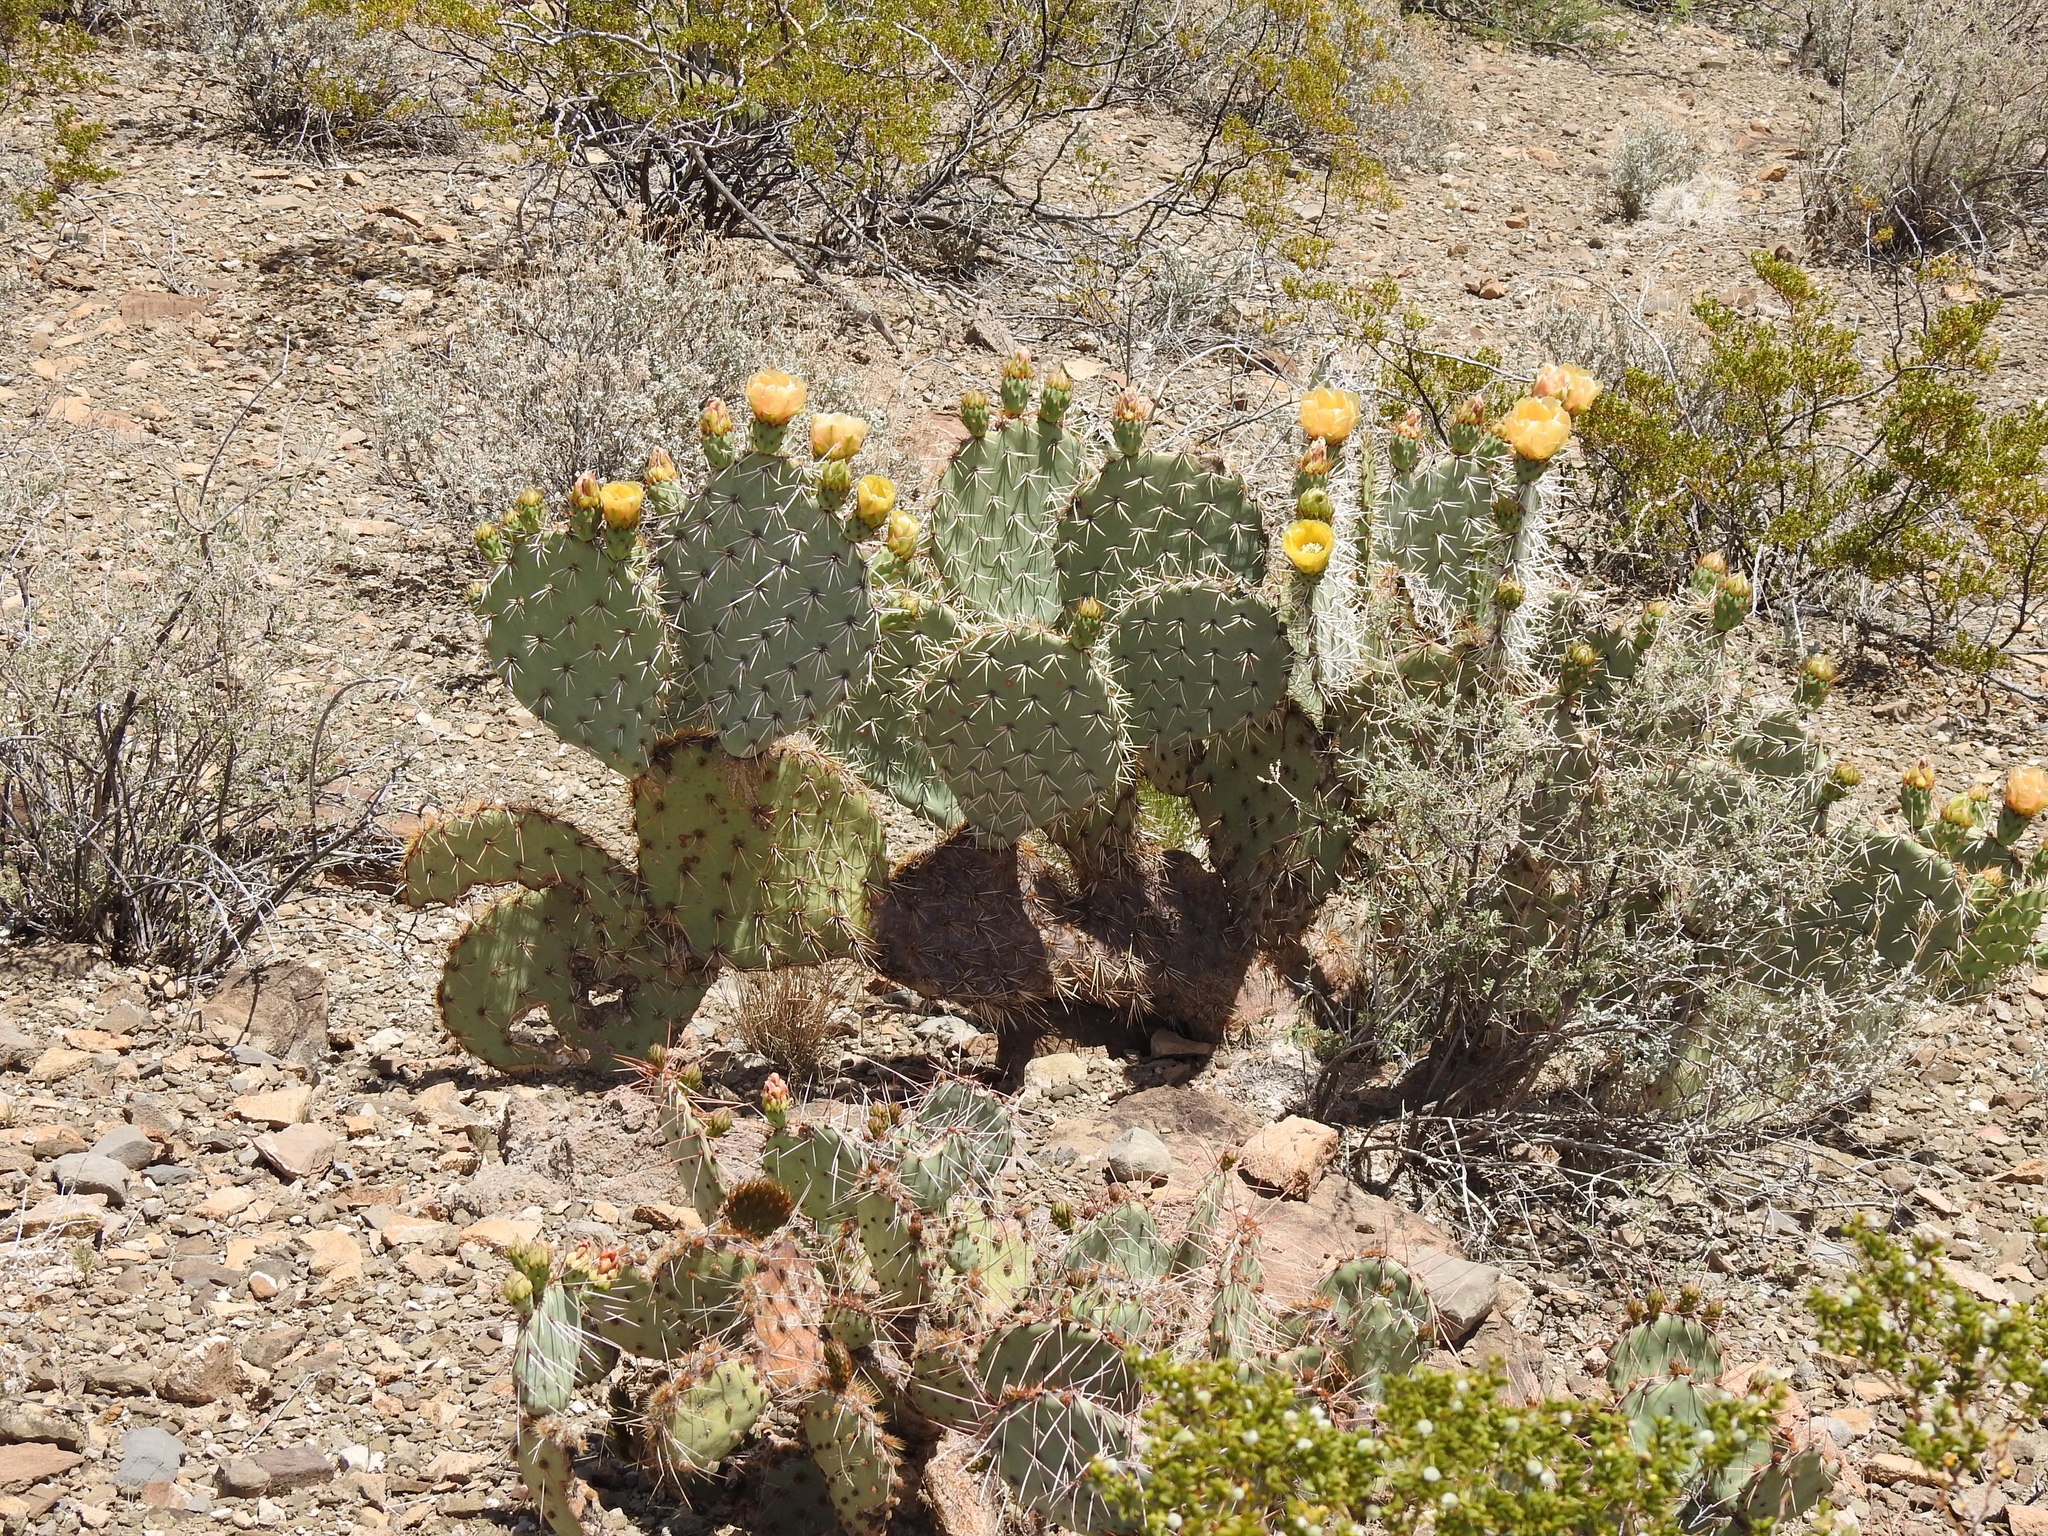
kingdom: Plantae
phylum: Tracheophyta
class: Magnoliopsida
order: Caryophyllales
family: Cactaceae
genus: Opuntia
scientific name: Opuntia engelmannii
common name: Cactus-apple
